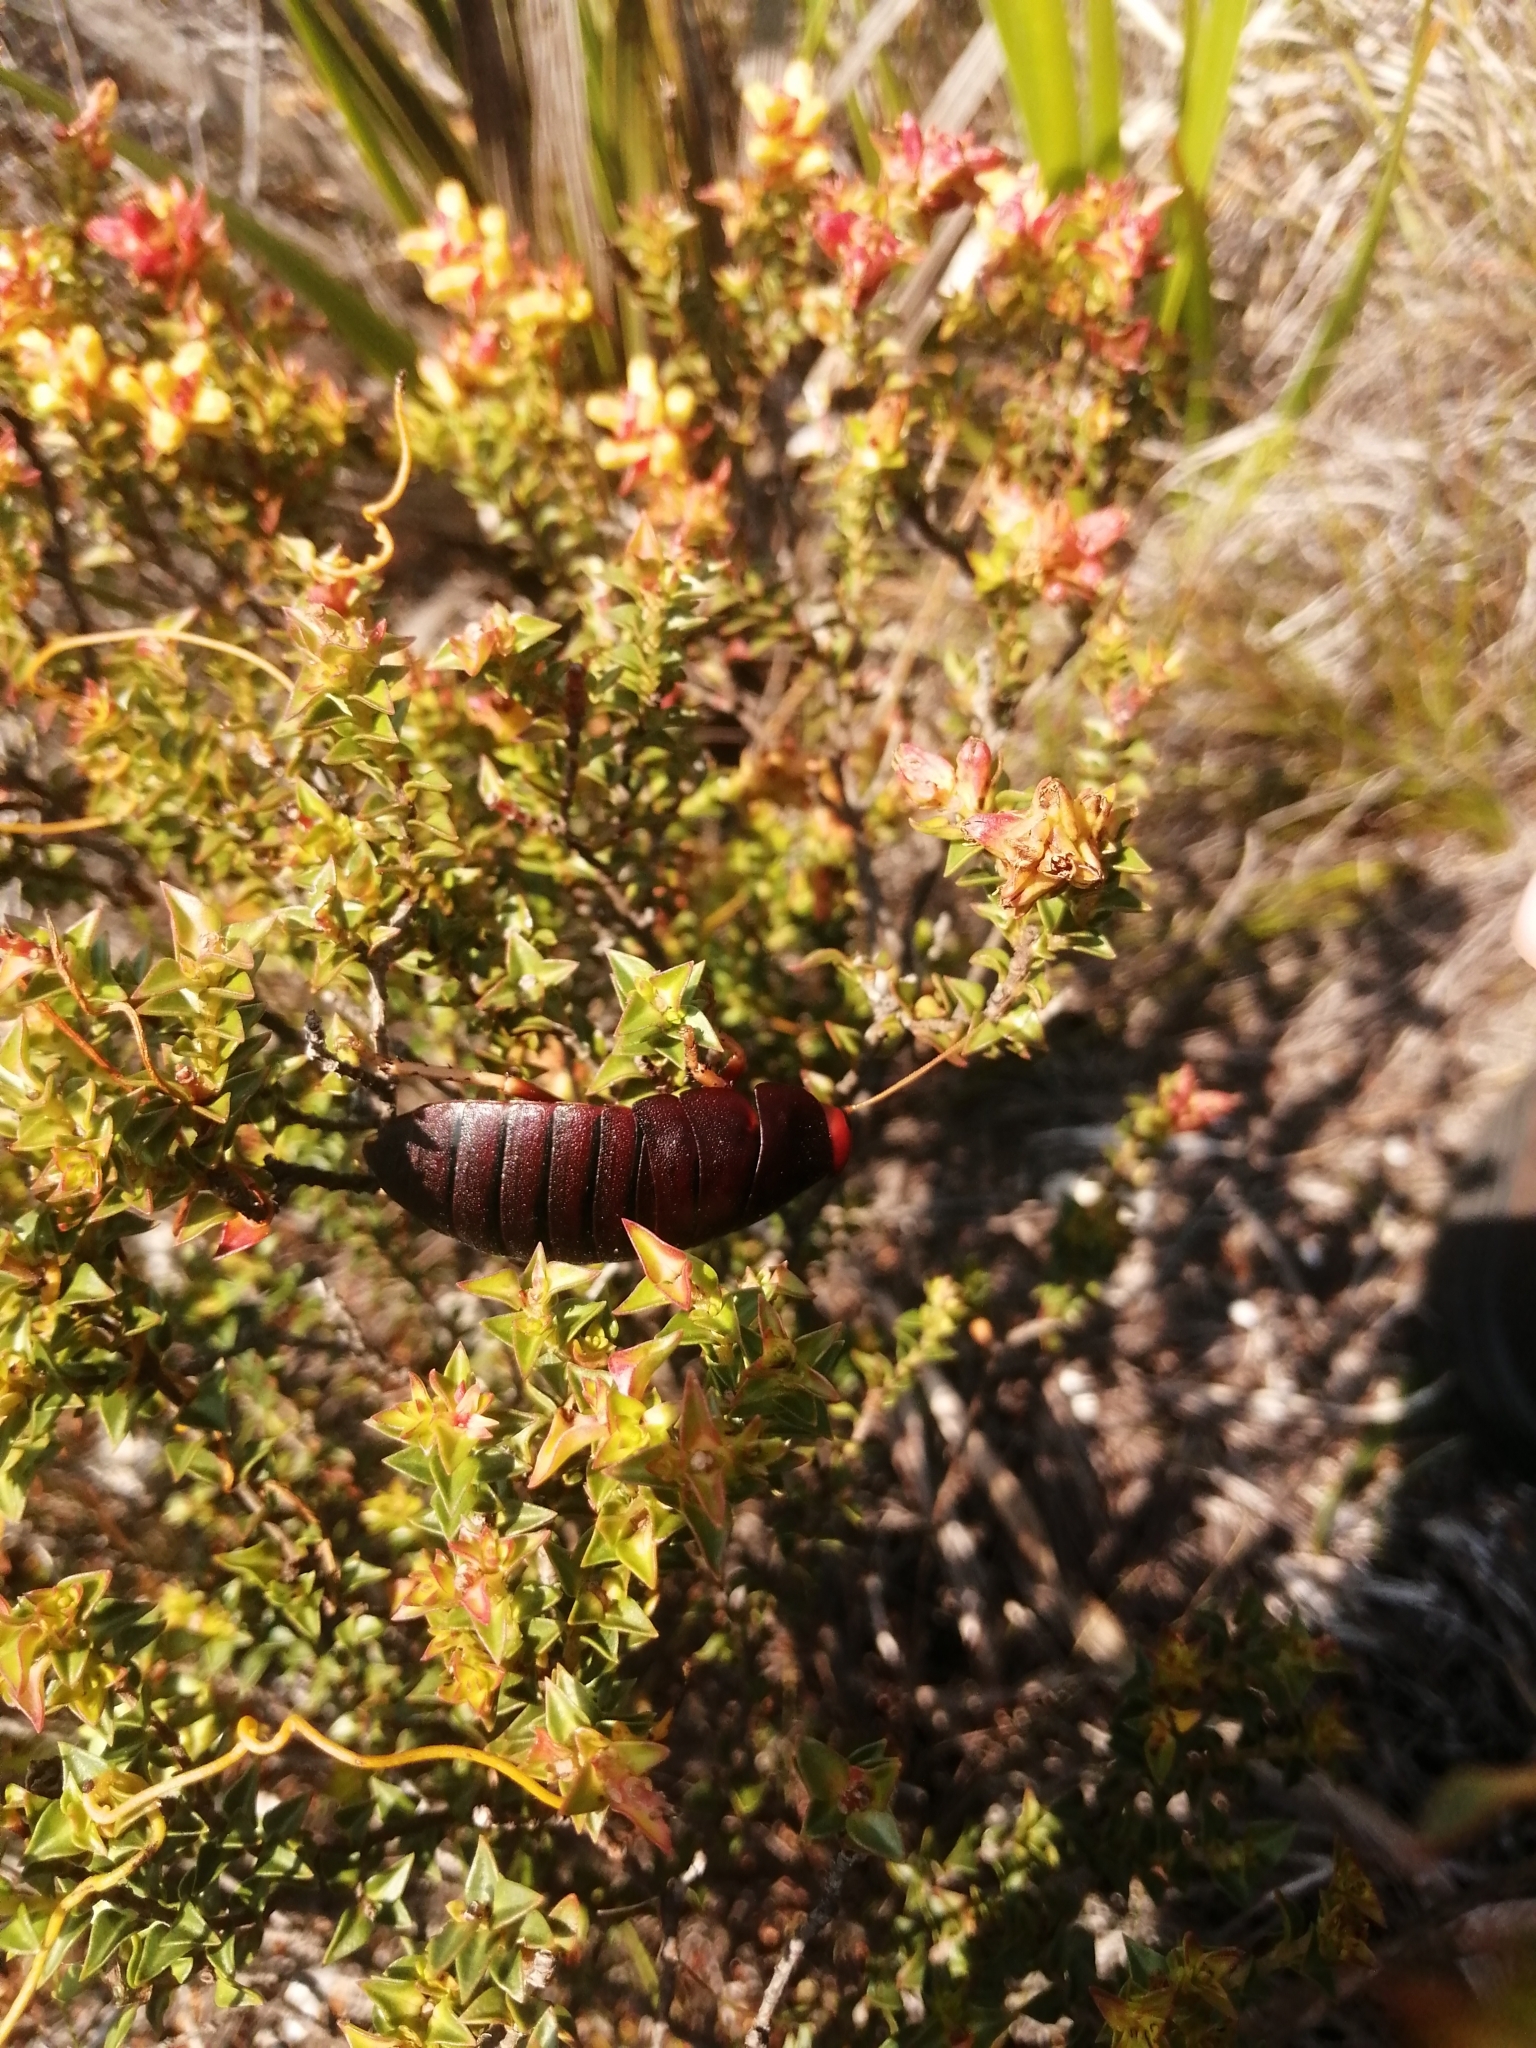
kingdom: Animalia
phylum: Arthropoda
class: Insecta
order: Blattodea
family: Blaberidae
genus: Aptera
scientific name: Aptera fusca
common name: Cape mountain cockroach
